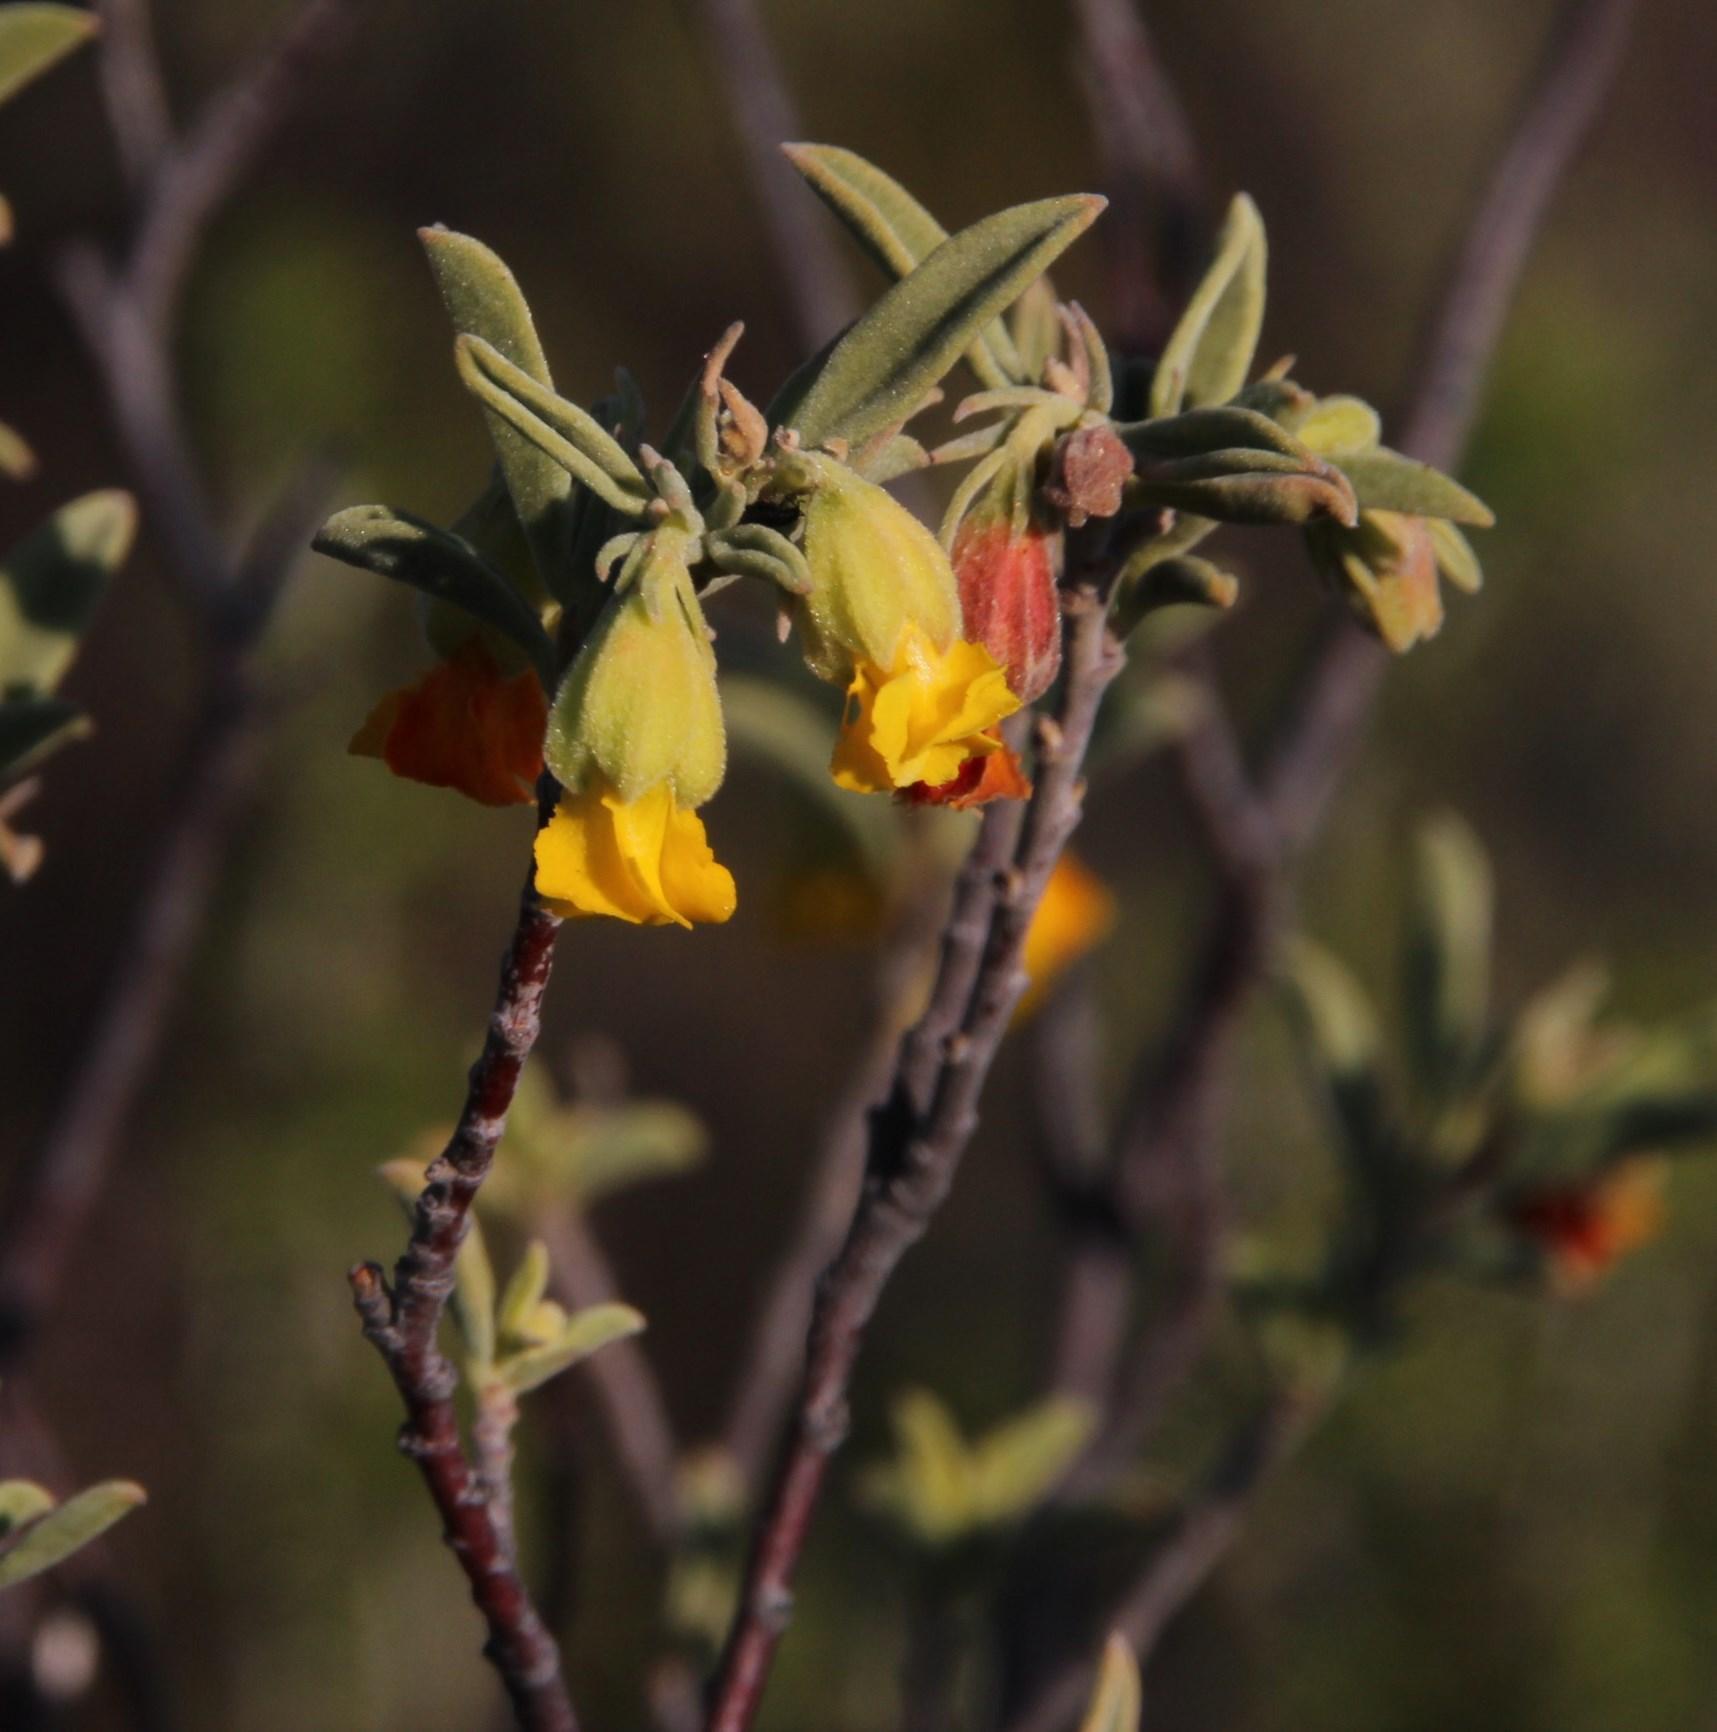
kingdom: Plantae
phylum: Tracheophyta
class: Magnoliopsida
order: Malvales
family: Malvaceae
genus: Hermannia
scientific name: Hermannia odorata
